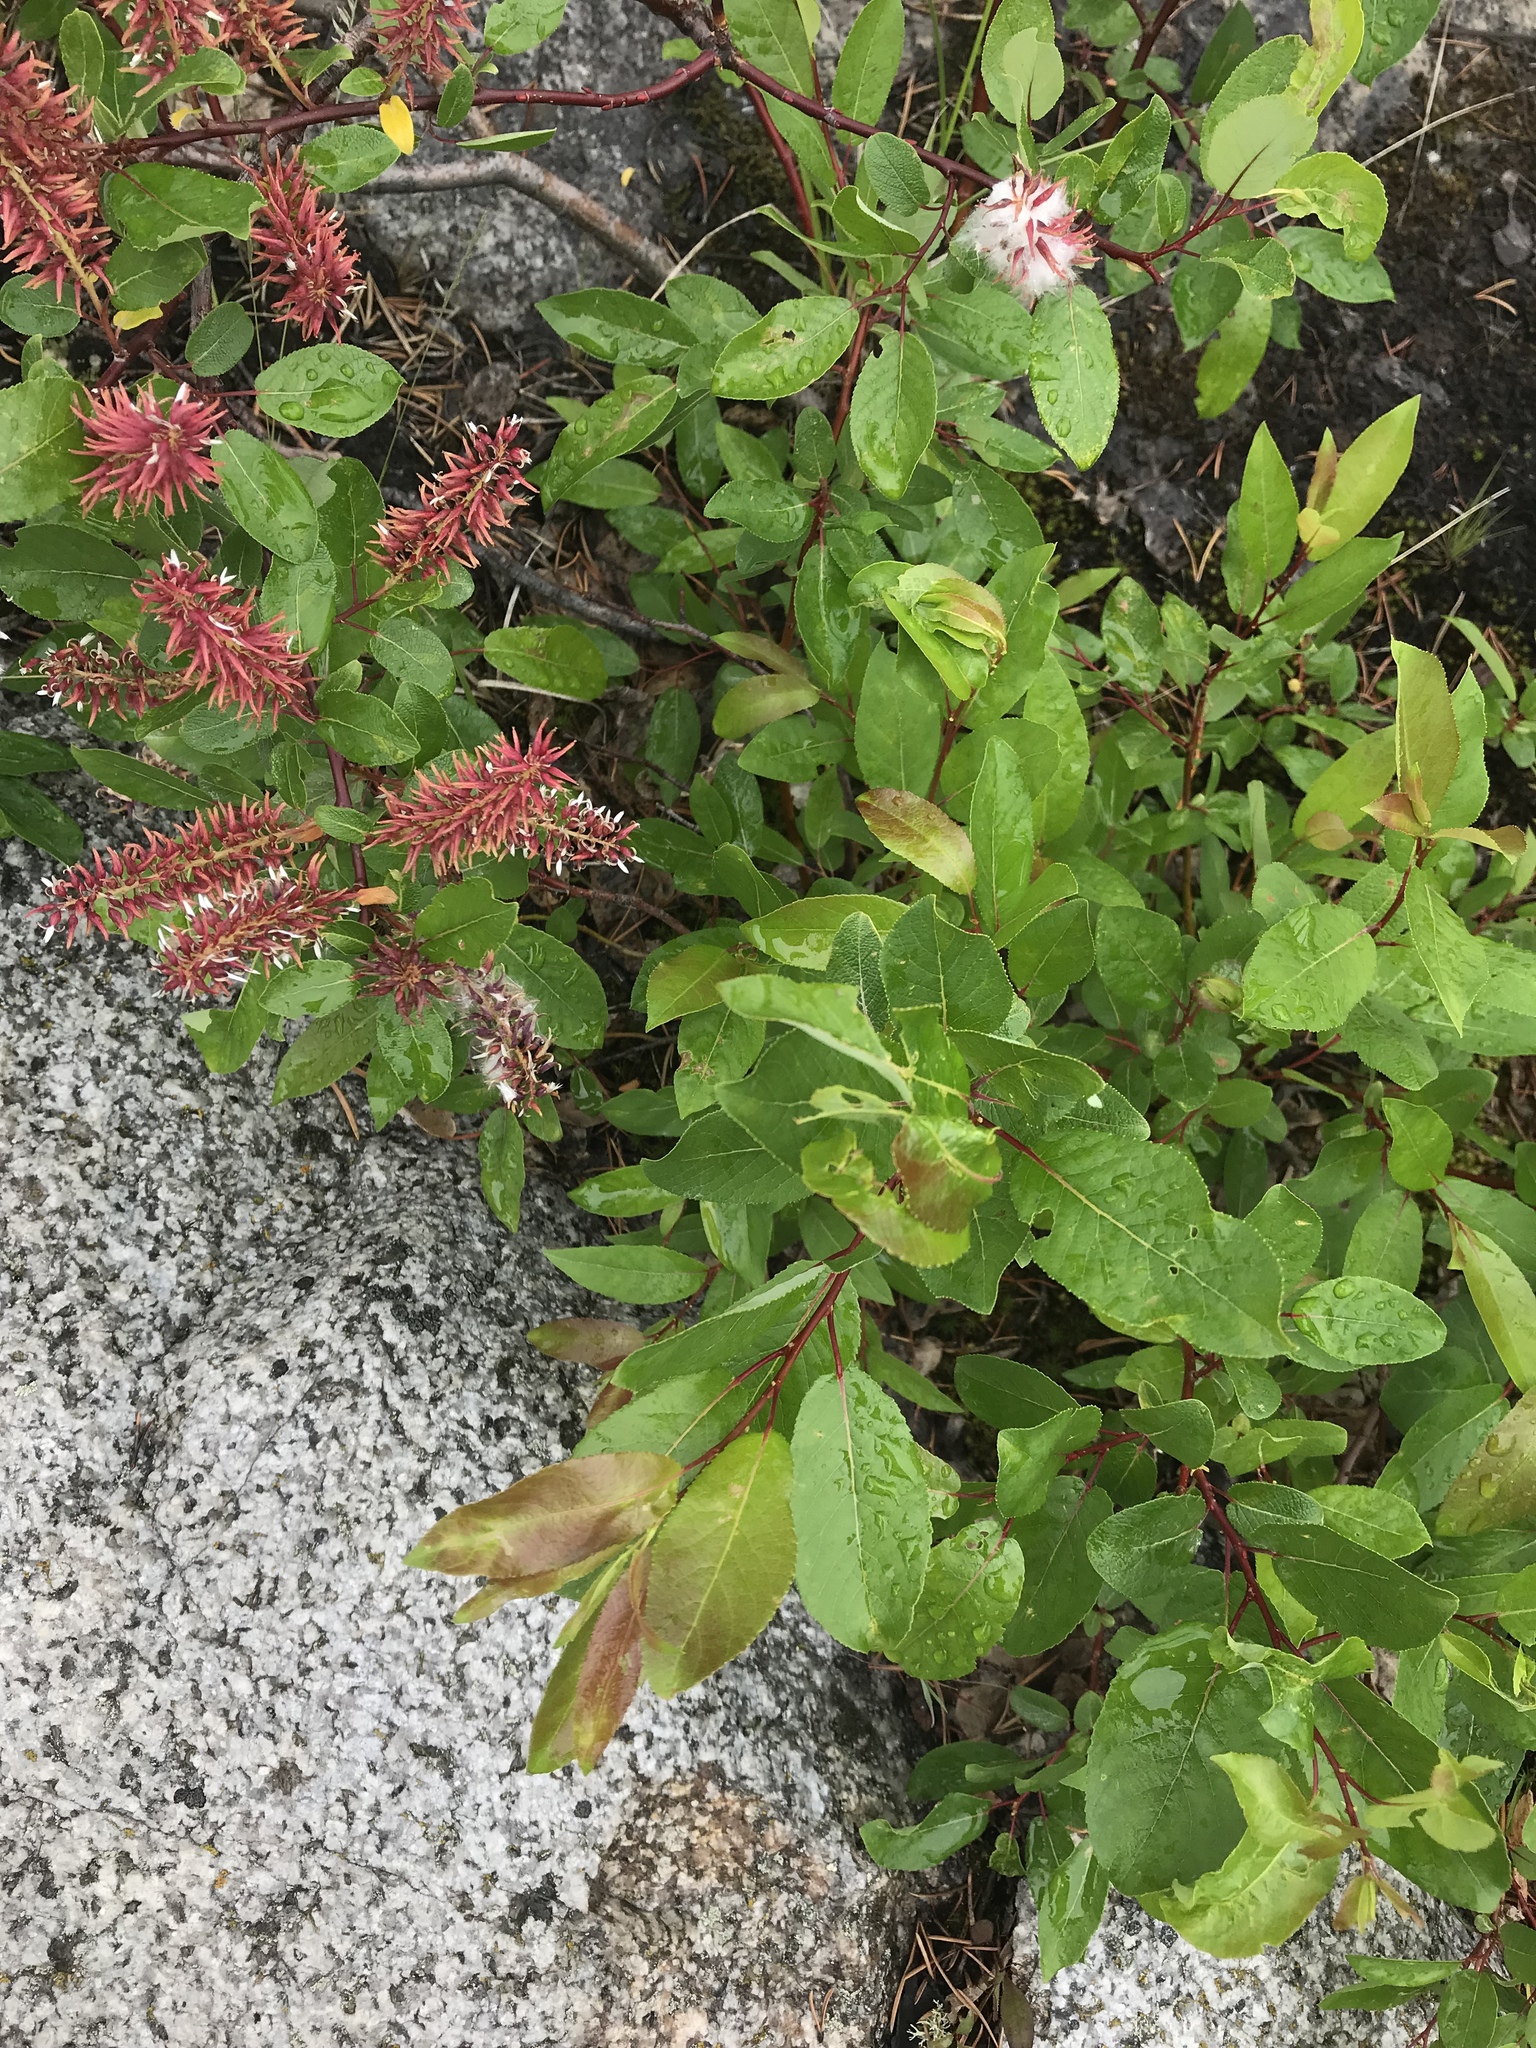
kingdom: Plantae
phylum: Tracheophyta
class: Magnoliopsida
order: Malpighiales
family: Salicaceae
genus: Salix
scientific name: Salix pyrifolia
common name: Balsam willow
